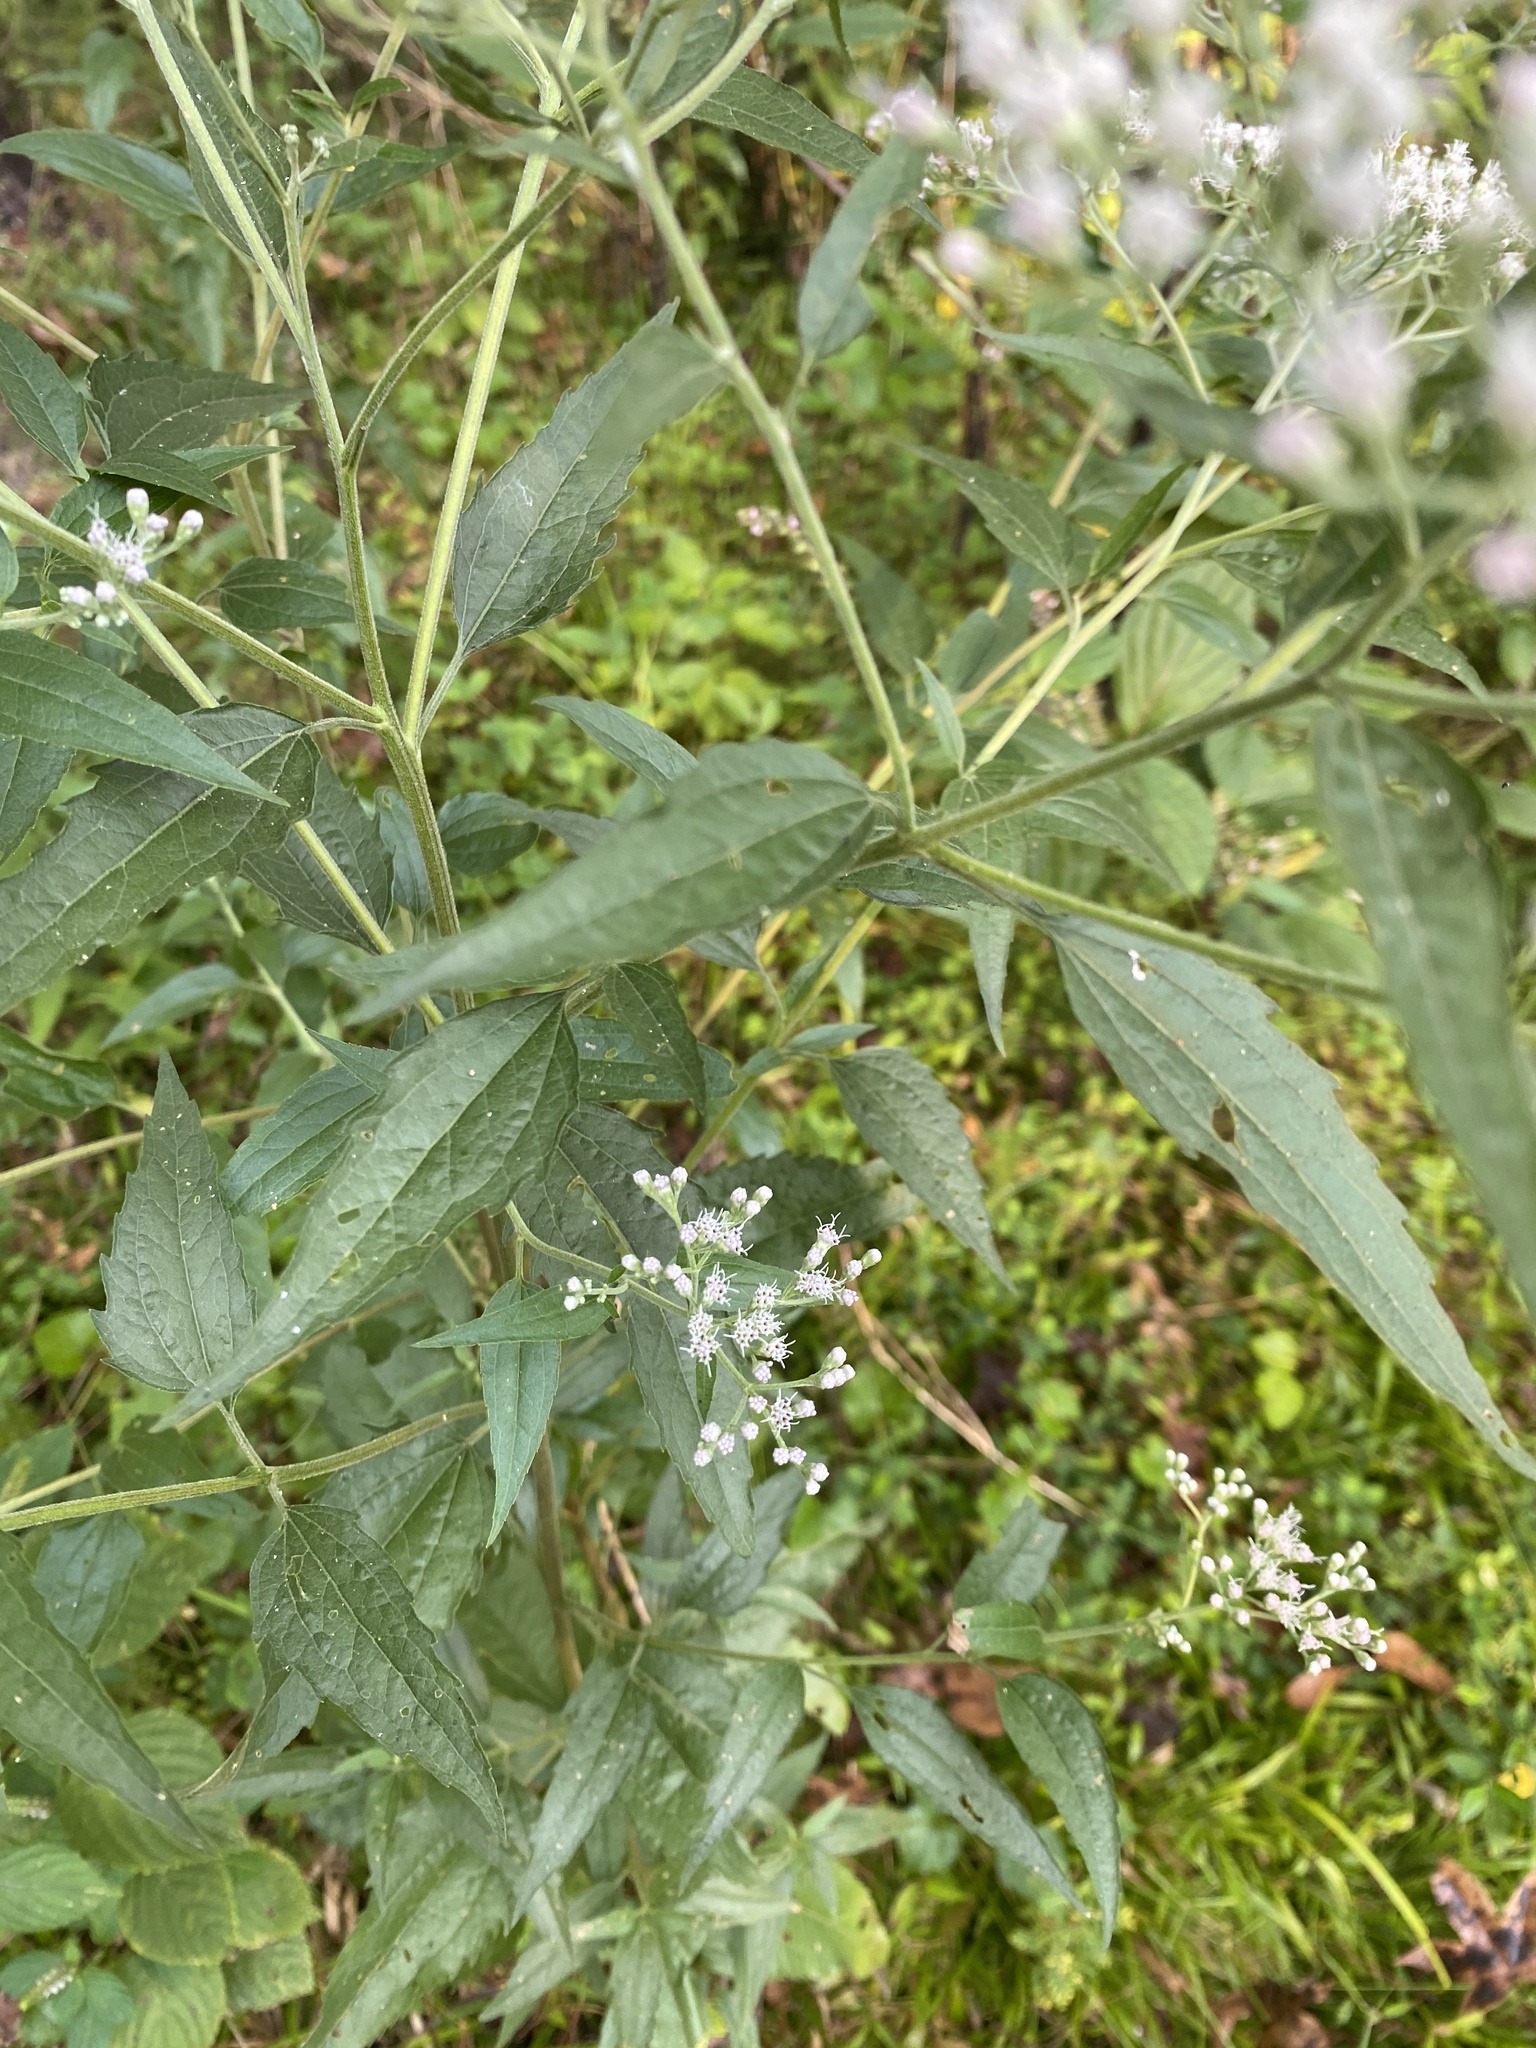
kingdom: Plantae
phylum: Tracheophyta
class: Magnoliopsida
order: Asterales
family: Asteraceae
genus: Eupatorium
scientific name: Eupatorium serotinum
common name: Late boneset
